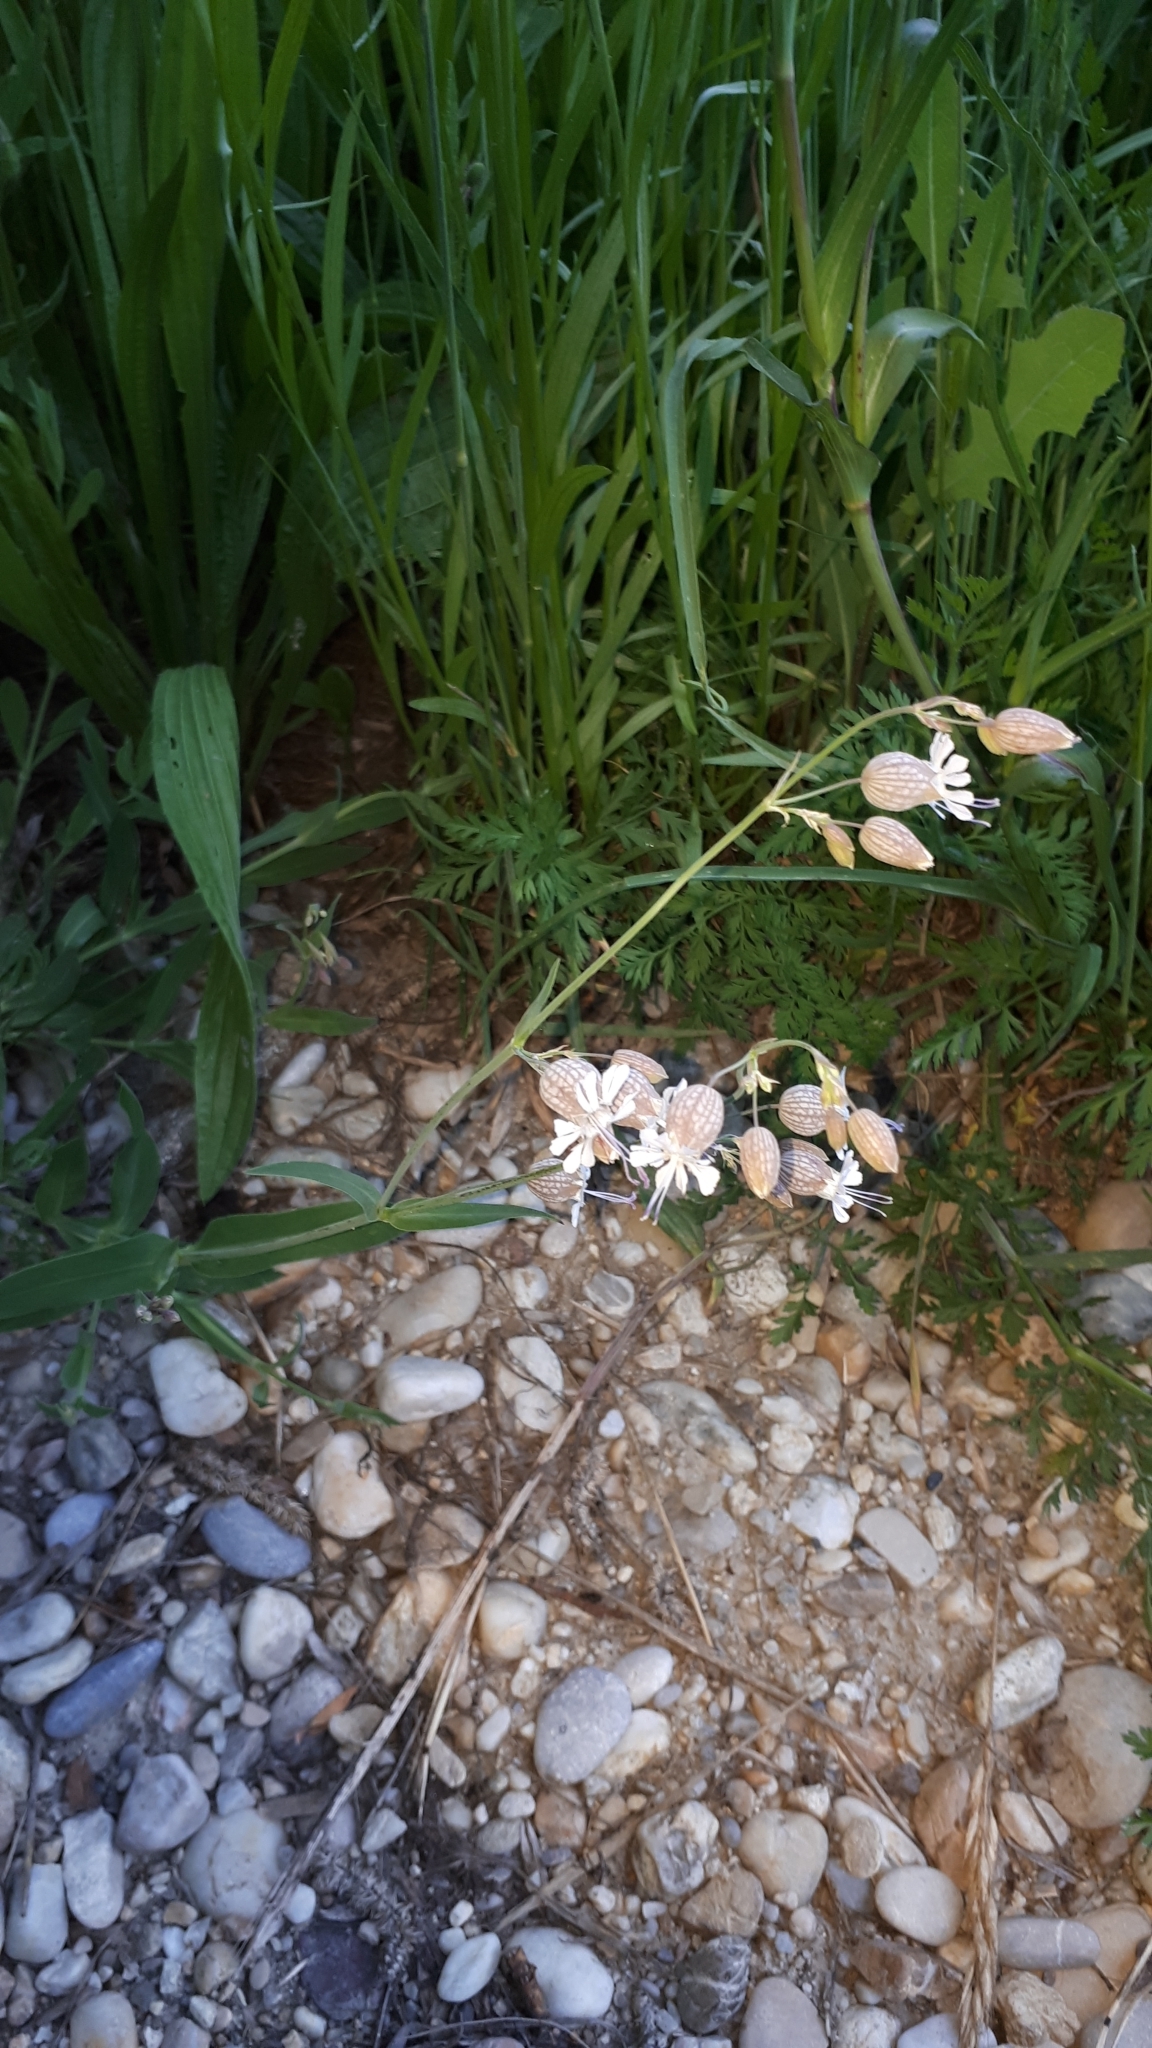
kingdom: Plantae
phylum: Tracheophyta
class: Magnoliopsida
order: Caryophyllales
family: Caryophyllaceae
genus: Silene
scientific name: Silene vulgaris
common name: Bladder campion
